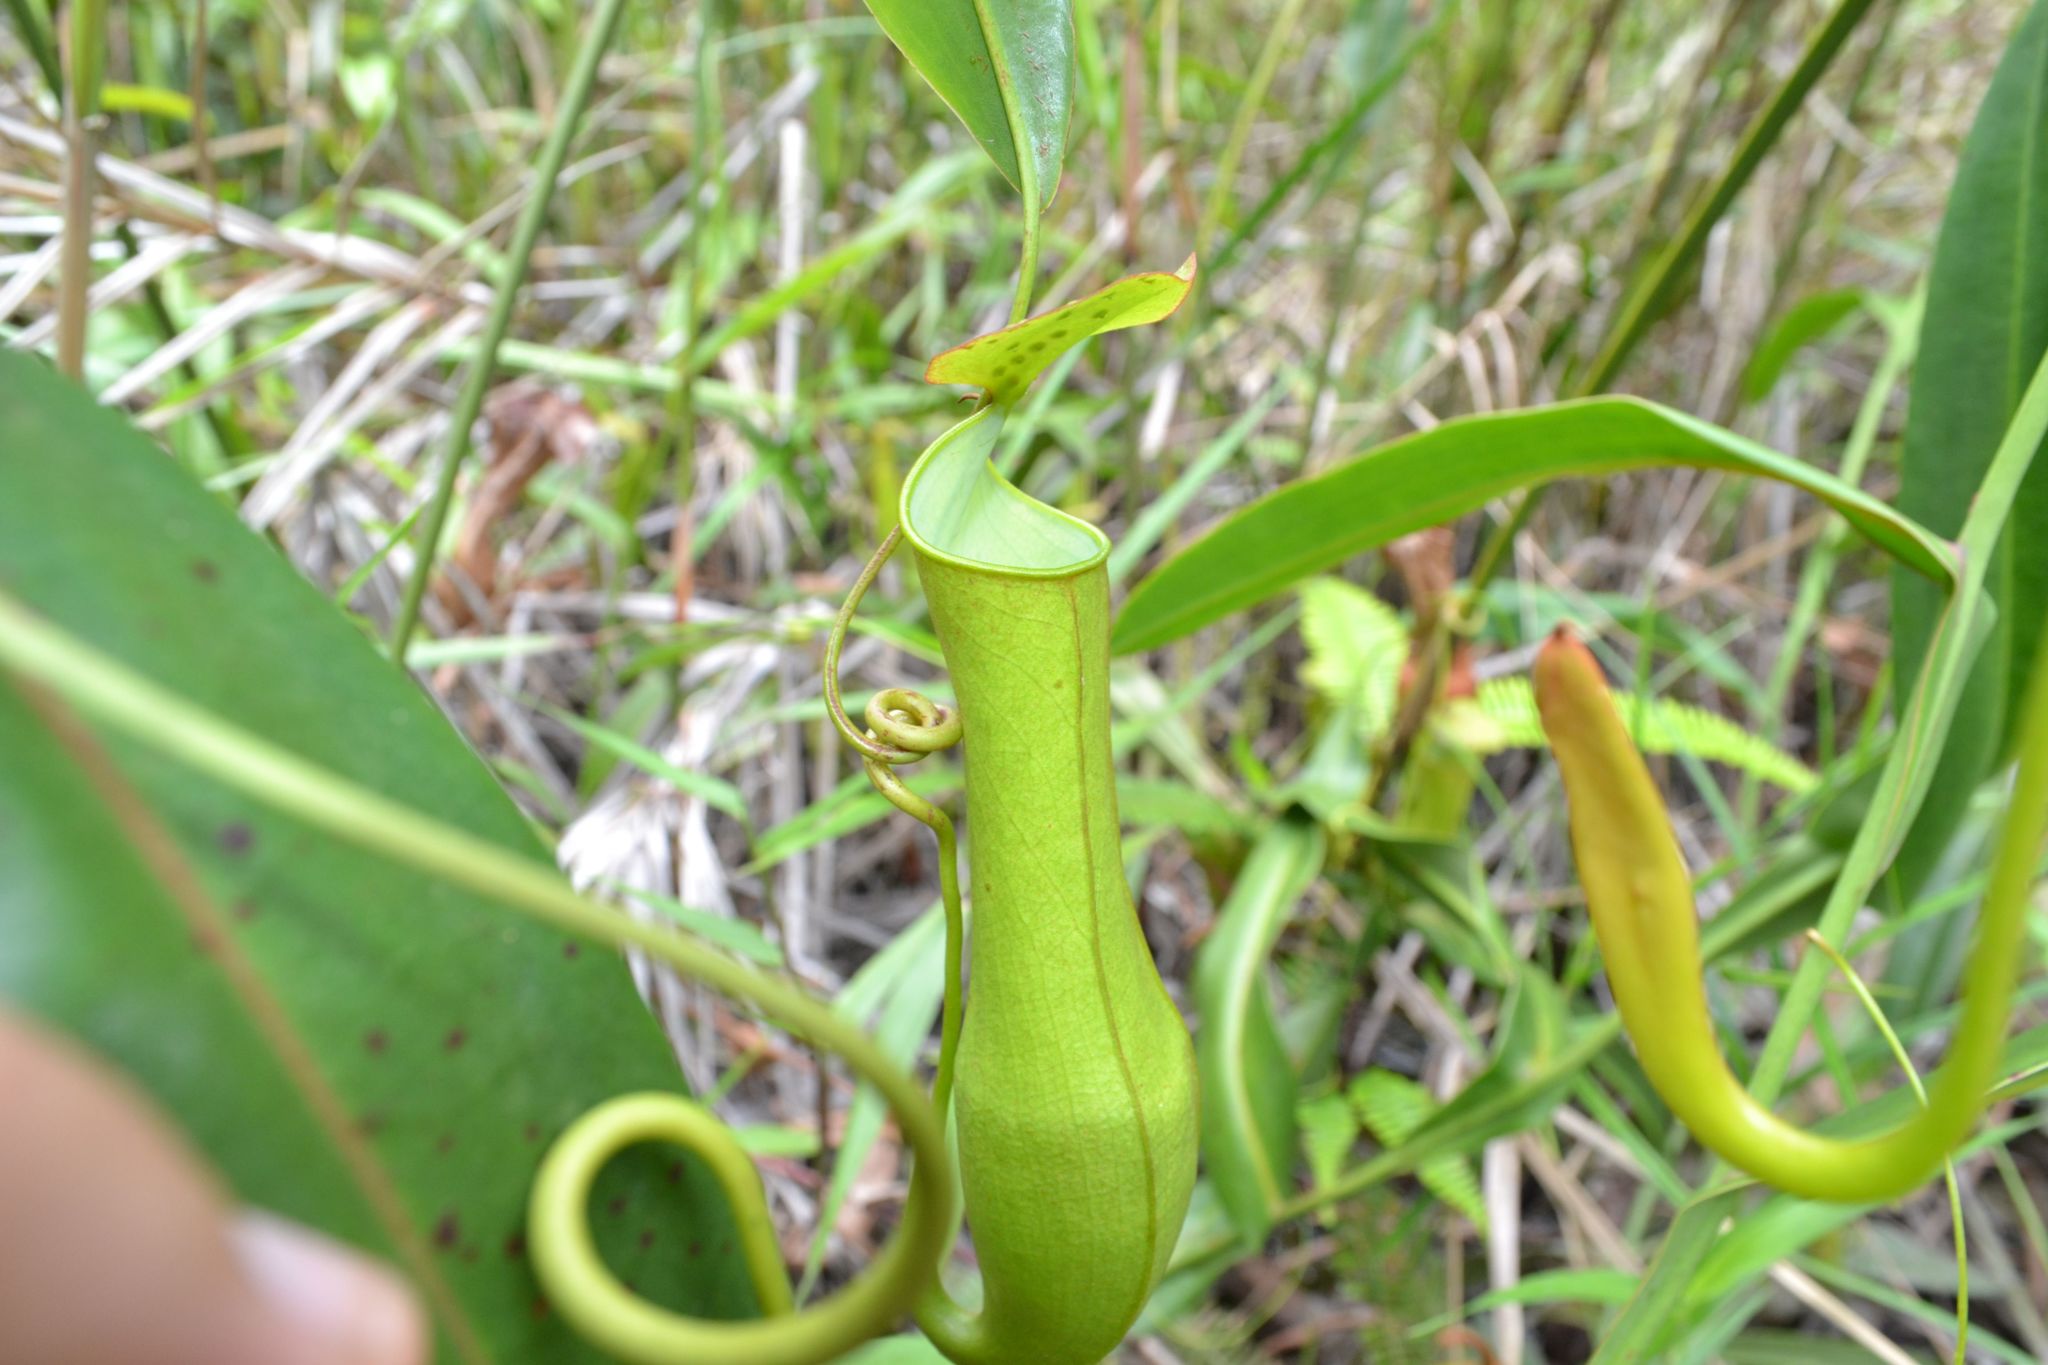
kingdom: Plantae
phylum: Tracheophyta
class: Magnoliopsida
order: Caryophyllales
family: Nepenthaceae
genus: Nepenthes
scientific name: Nepenthes gracilis
